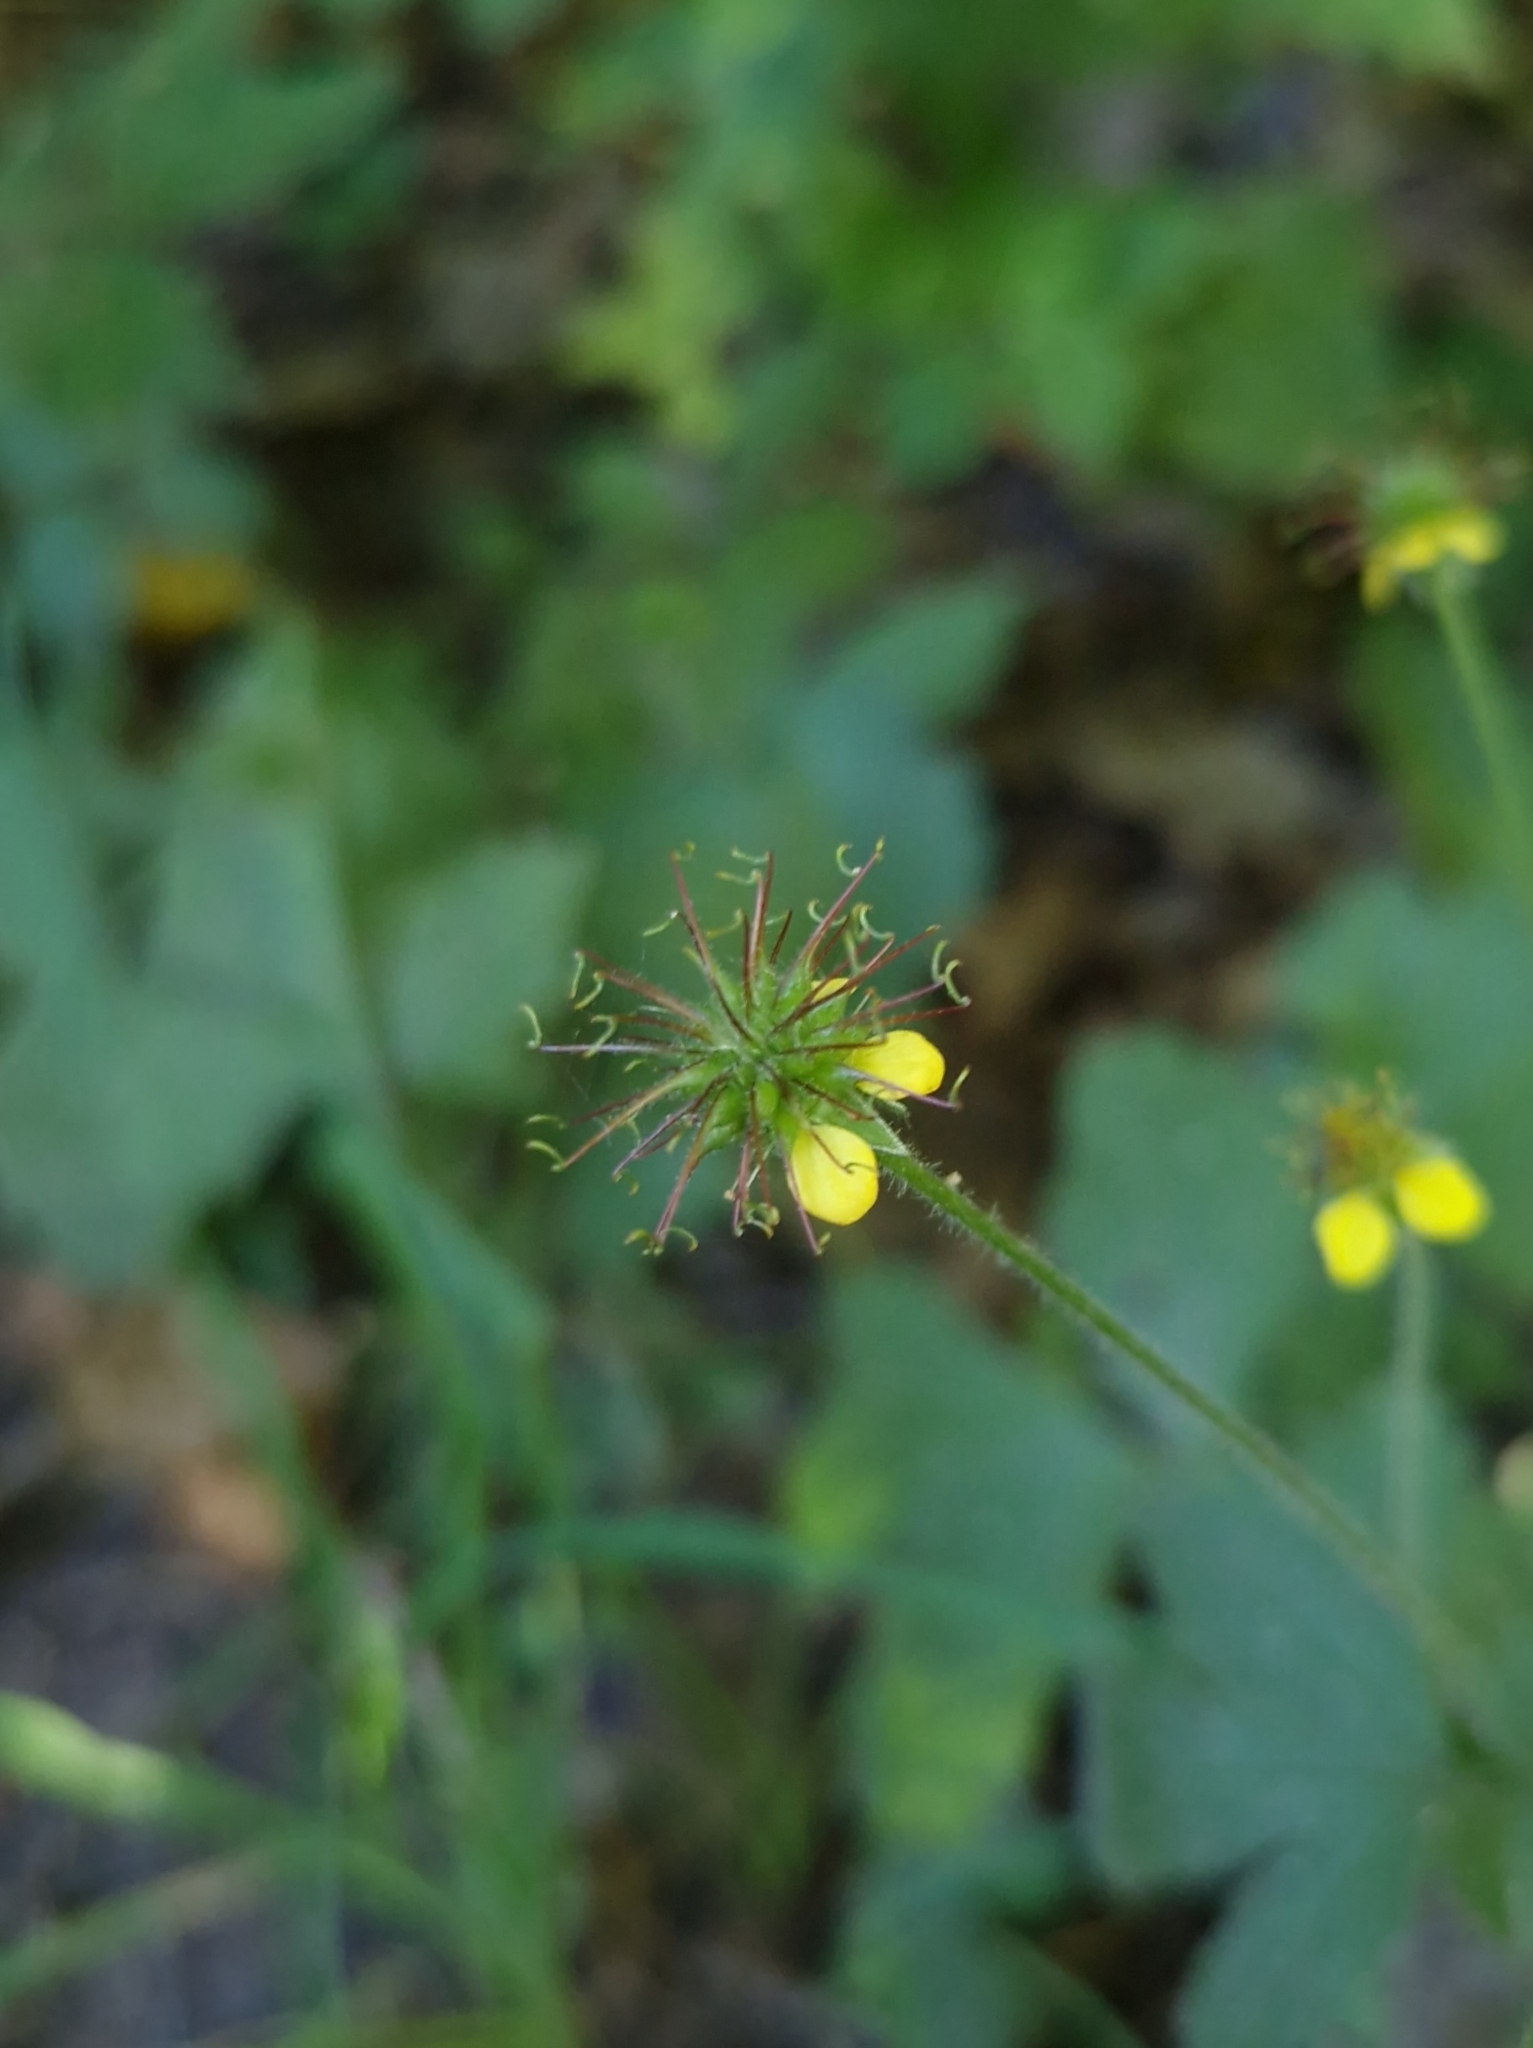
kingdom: Plantae
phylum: Tracheophyta
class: Magnoliopsida
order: Rosales
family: Rosaceae
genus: Geum
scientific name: Geum urbanum
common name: Wood avens
